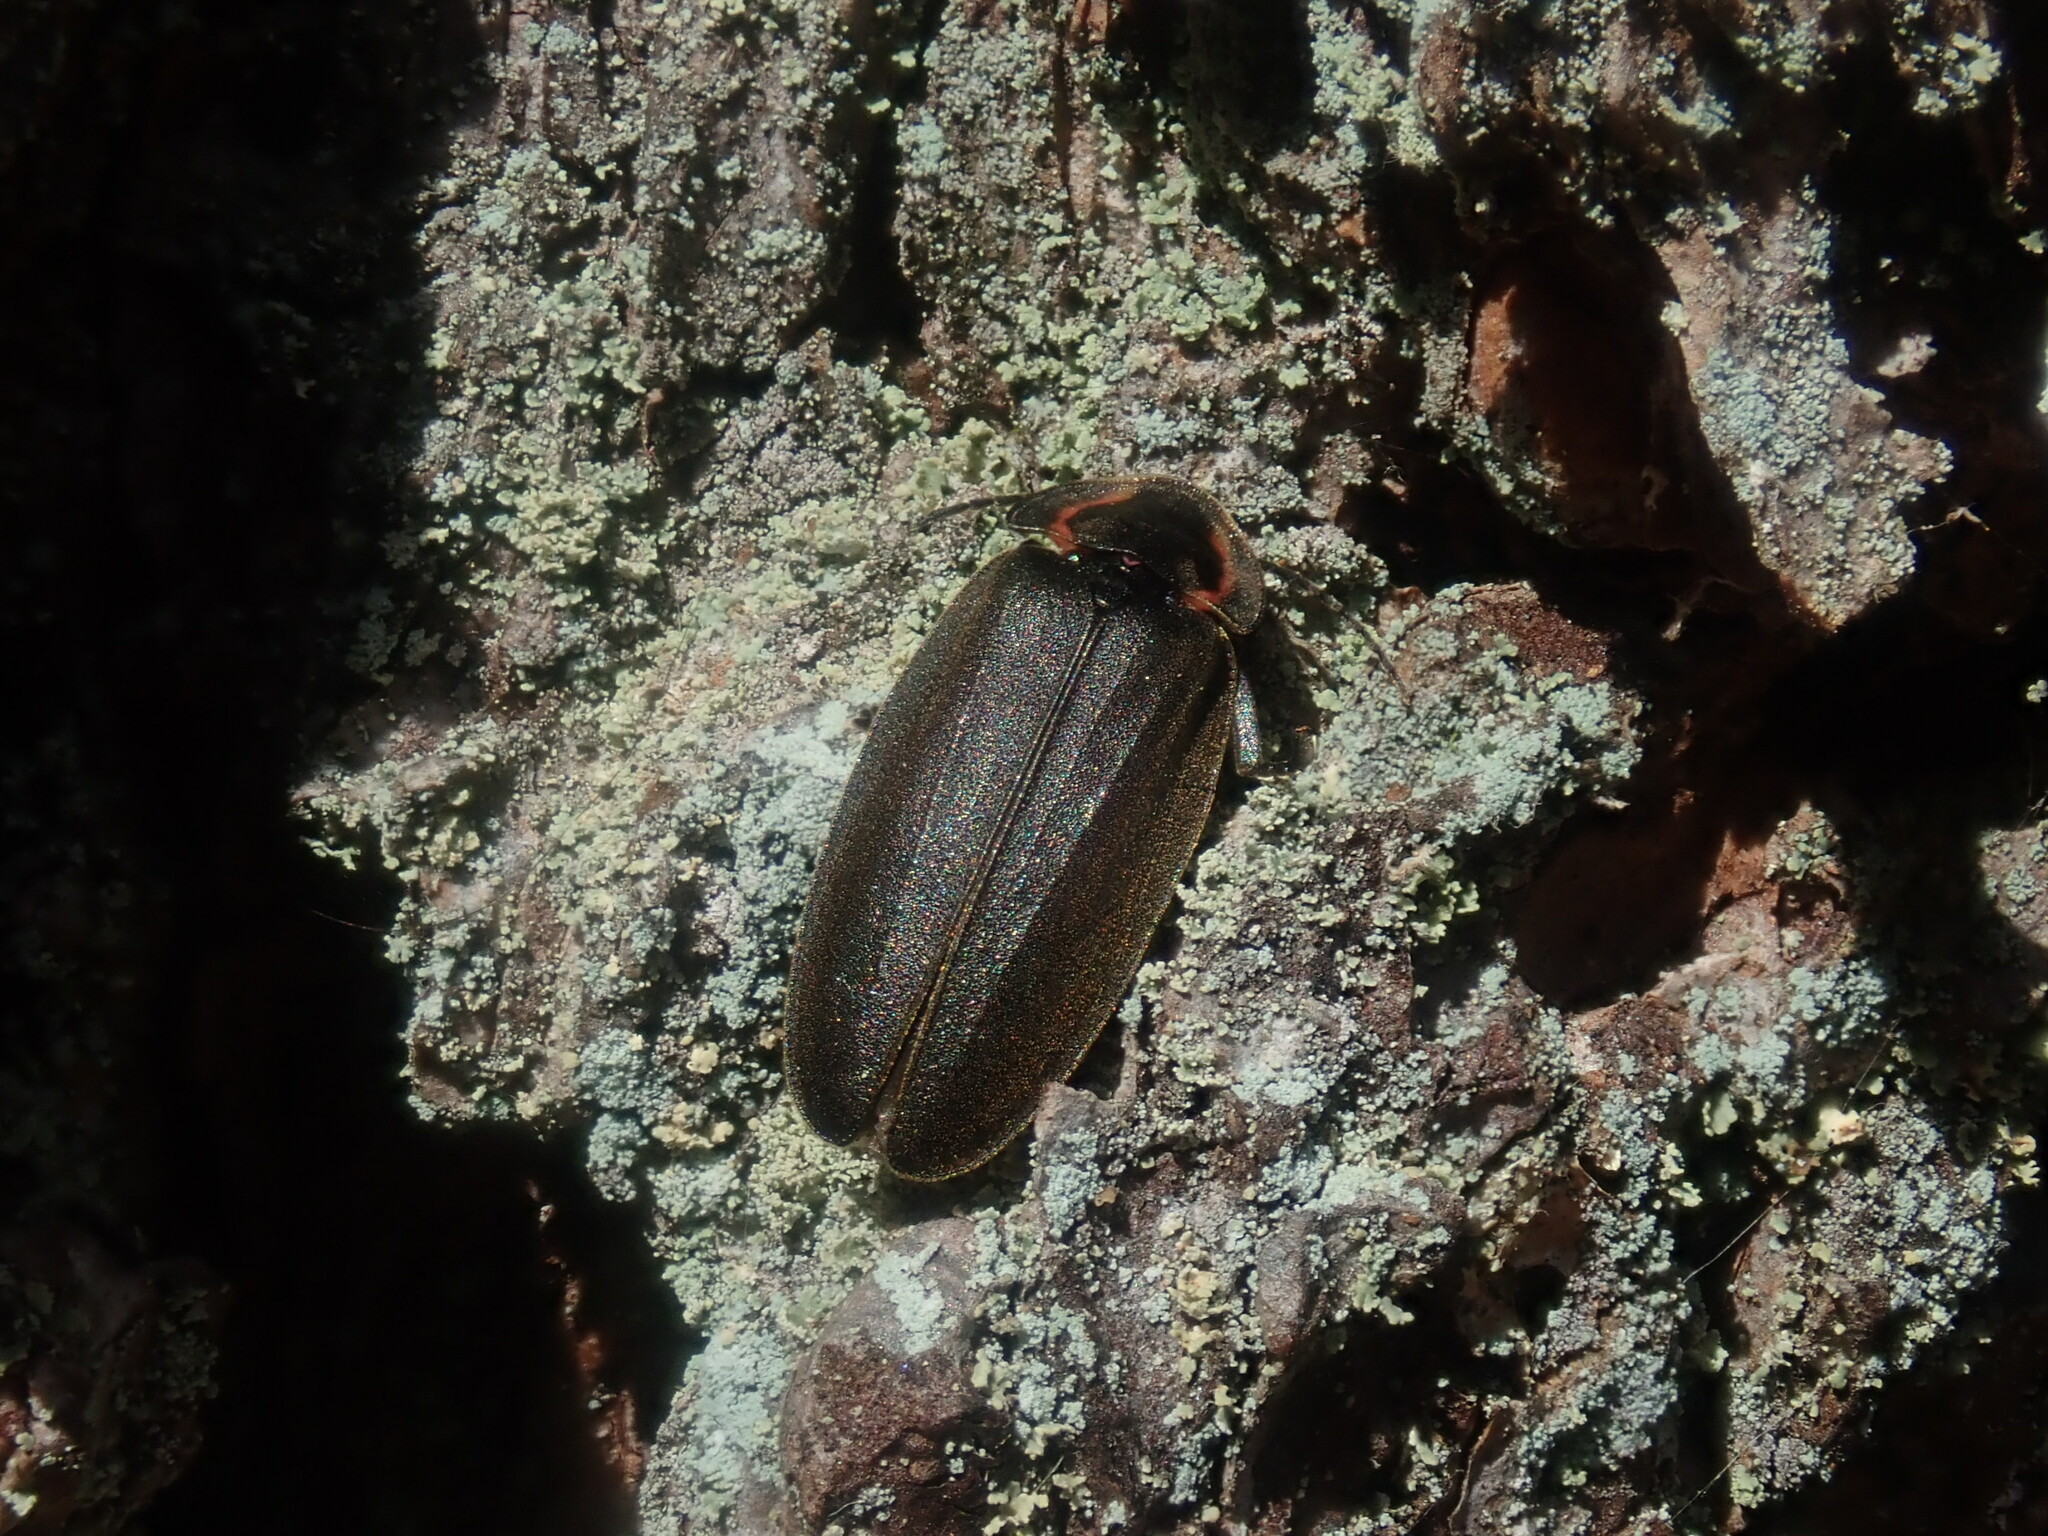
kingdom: Animalia
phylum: Arthropoda
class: Insecta
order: Coleoptera
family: Lampyridae
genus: Photinus
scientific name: Photinus corrusca
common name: Winter firefly
